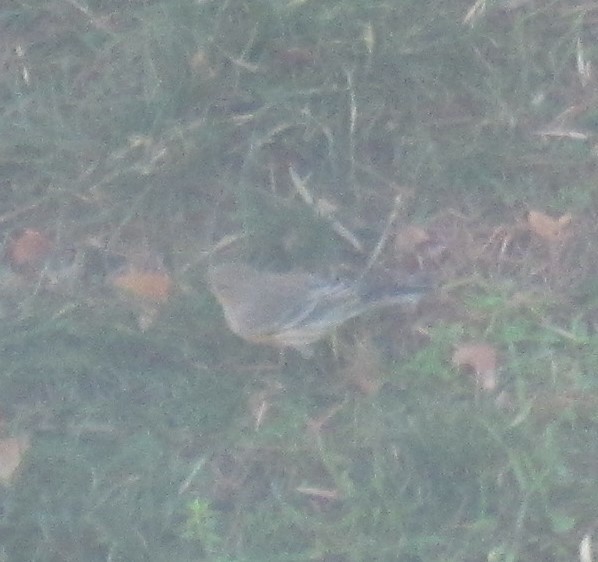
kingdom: Animalia
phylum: Chordata
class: Aves
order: Passeriformes
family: Parulidae
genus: Setophaga
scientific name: Setophaga coronata
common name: Myrtle warbler
